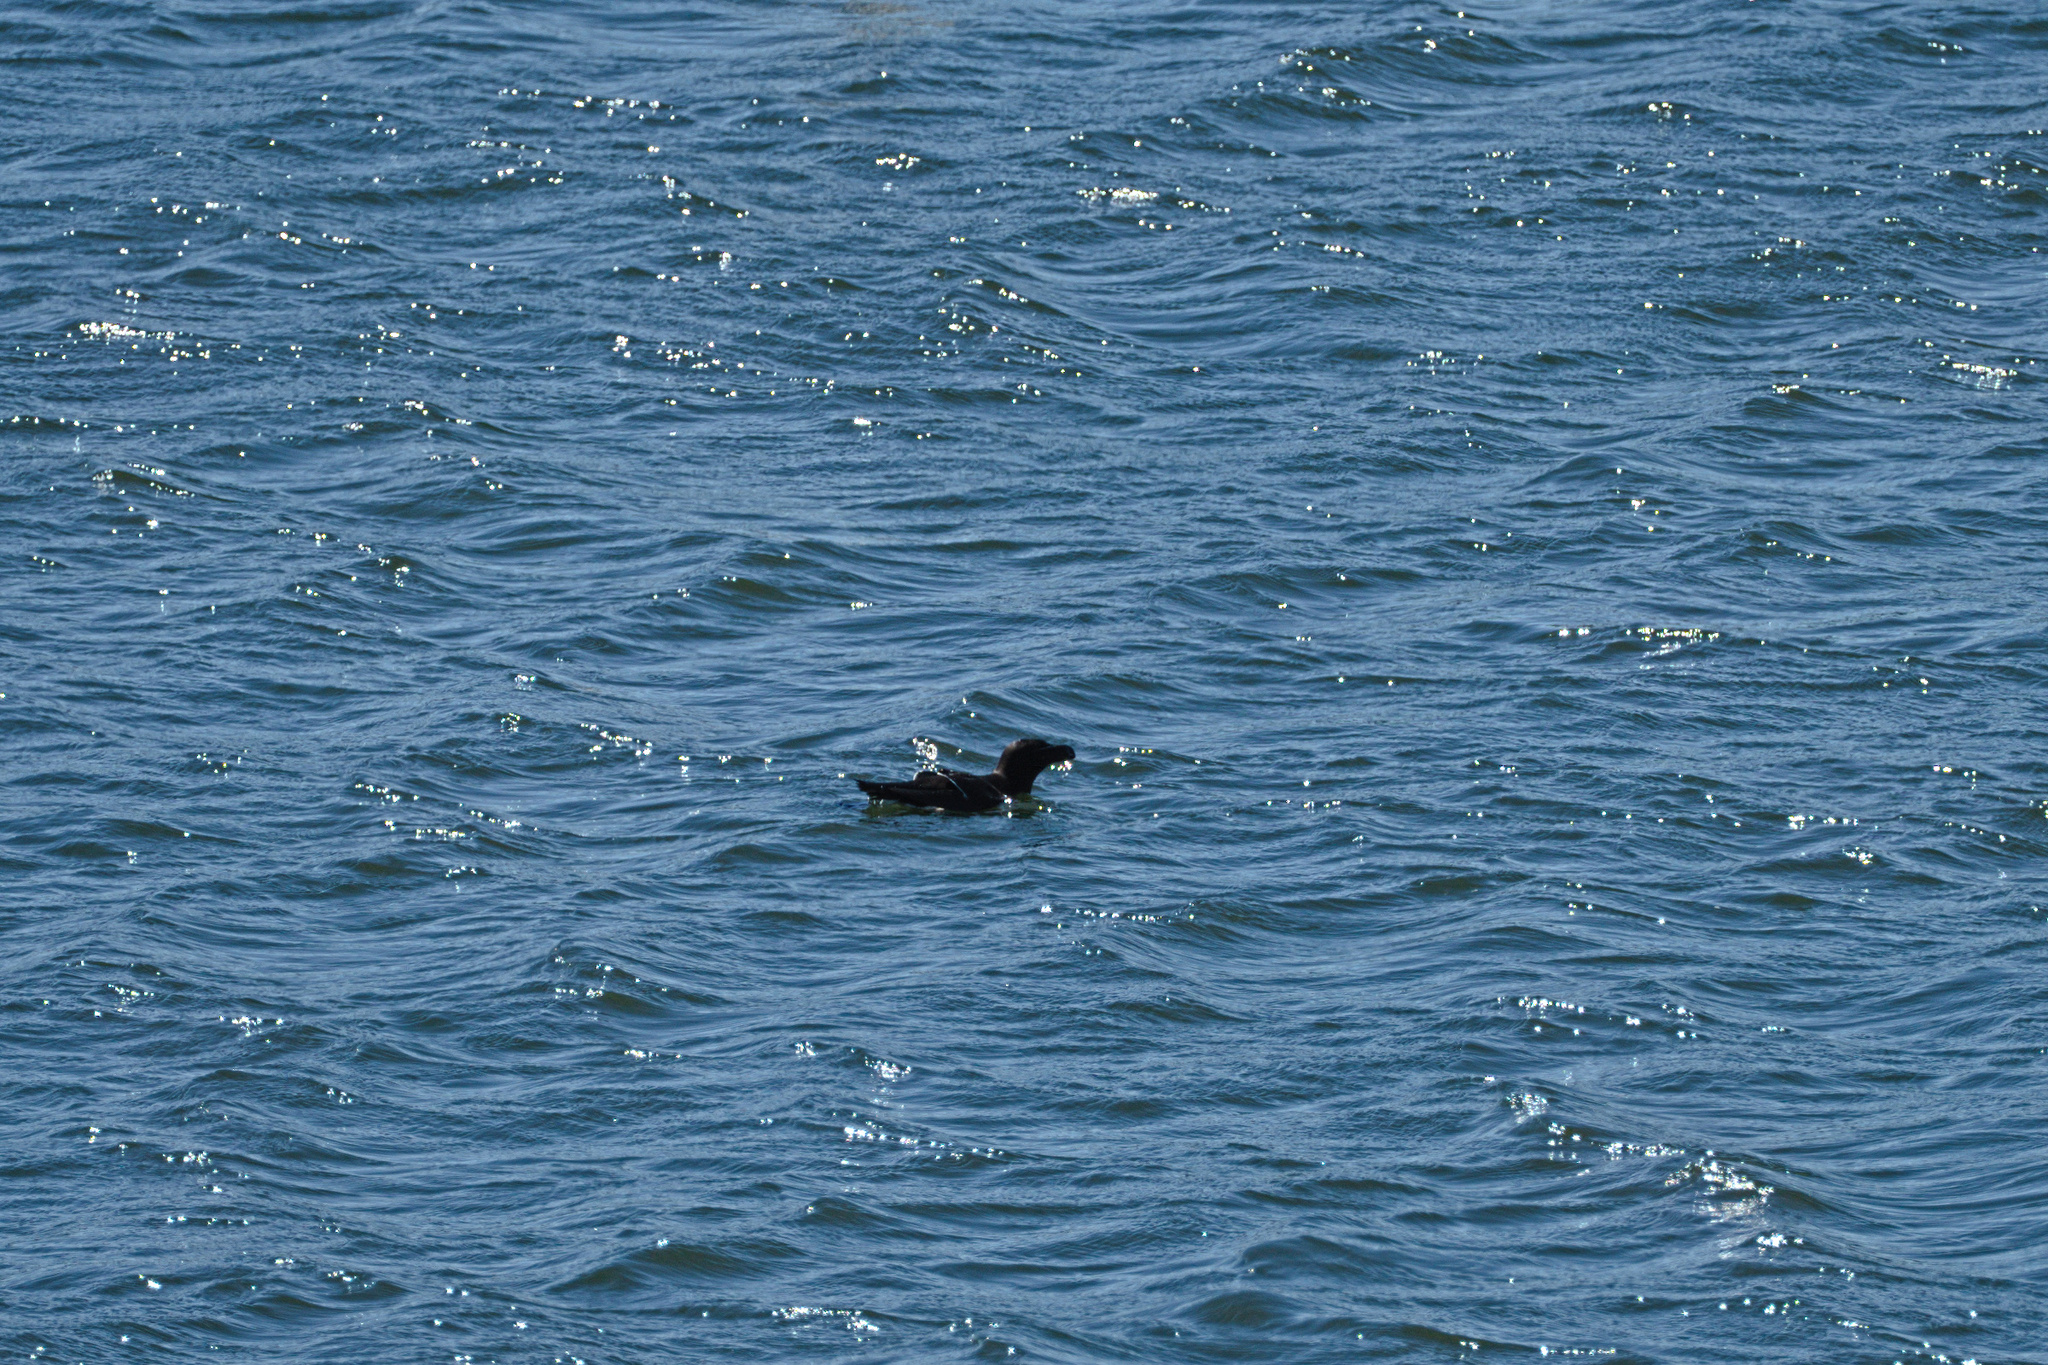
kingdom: Animalia
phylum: Chordata
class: Aves
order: Charadriiformes
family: Alcidae
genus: Alca
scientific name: Alca torda
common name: Razorbill
